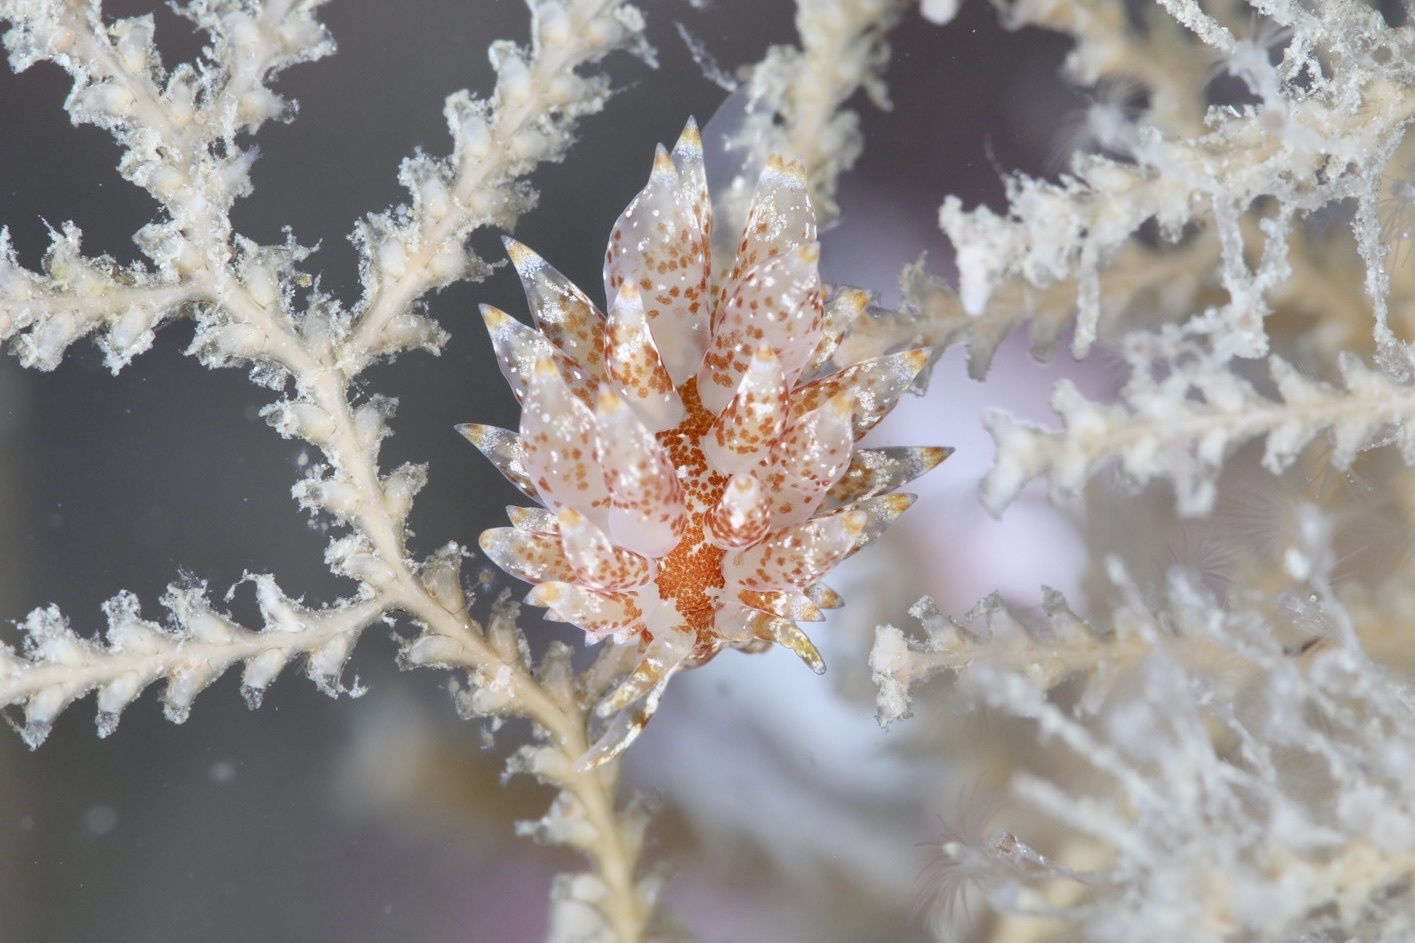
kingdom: Animalia
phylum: Mollusca
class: Gastropoda
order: Nudibranchia
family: Eubranchidae
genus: Amphorina
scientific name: Amphorina pallida
